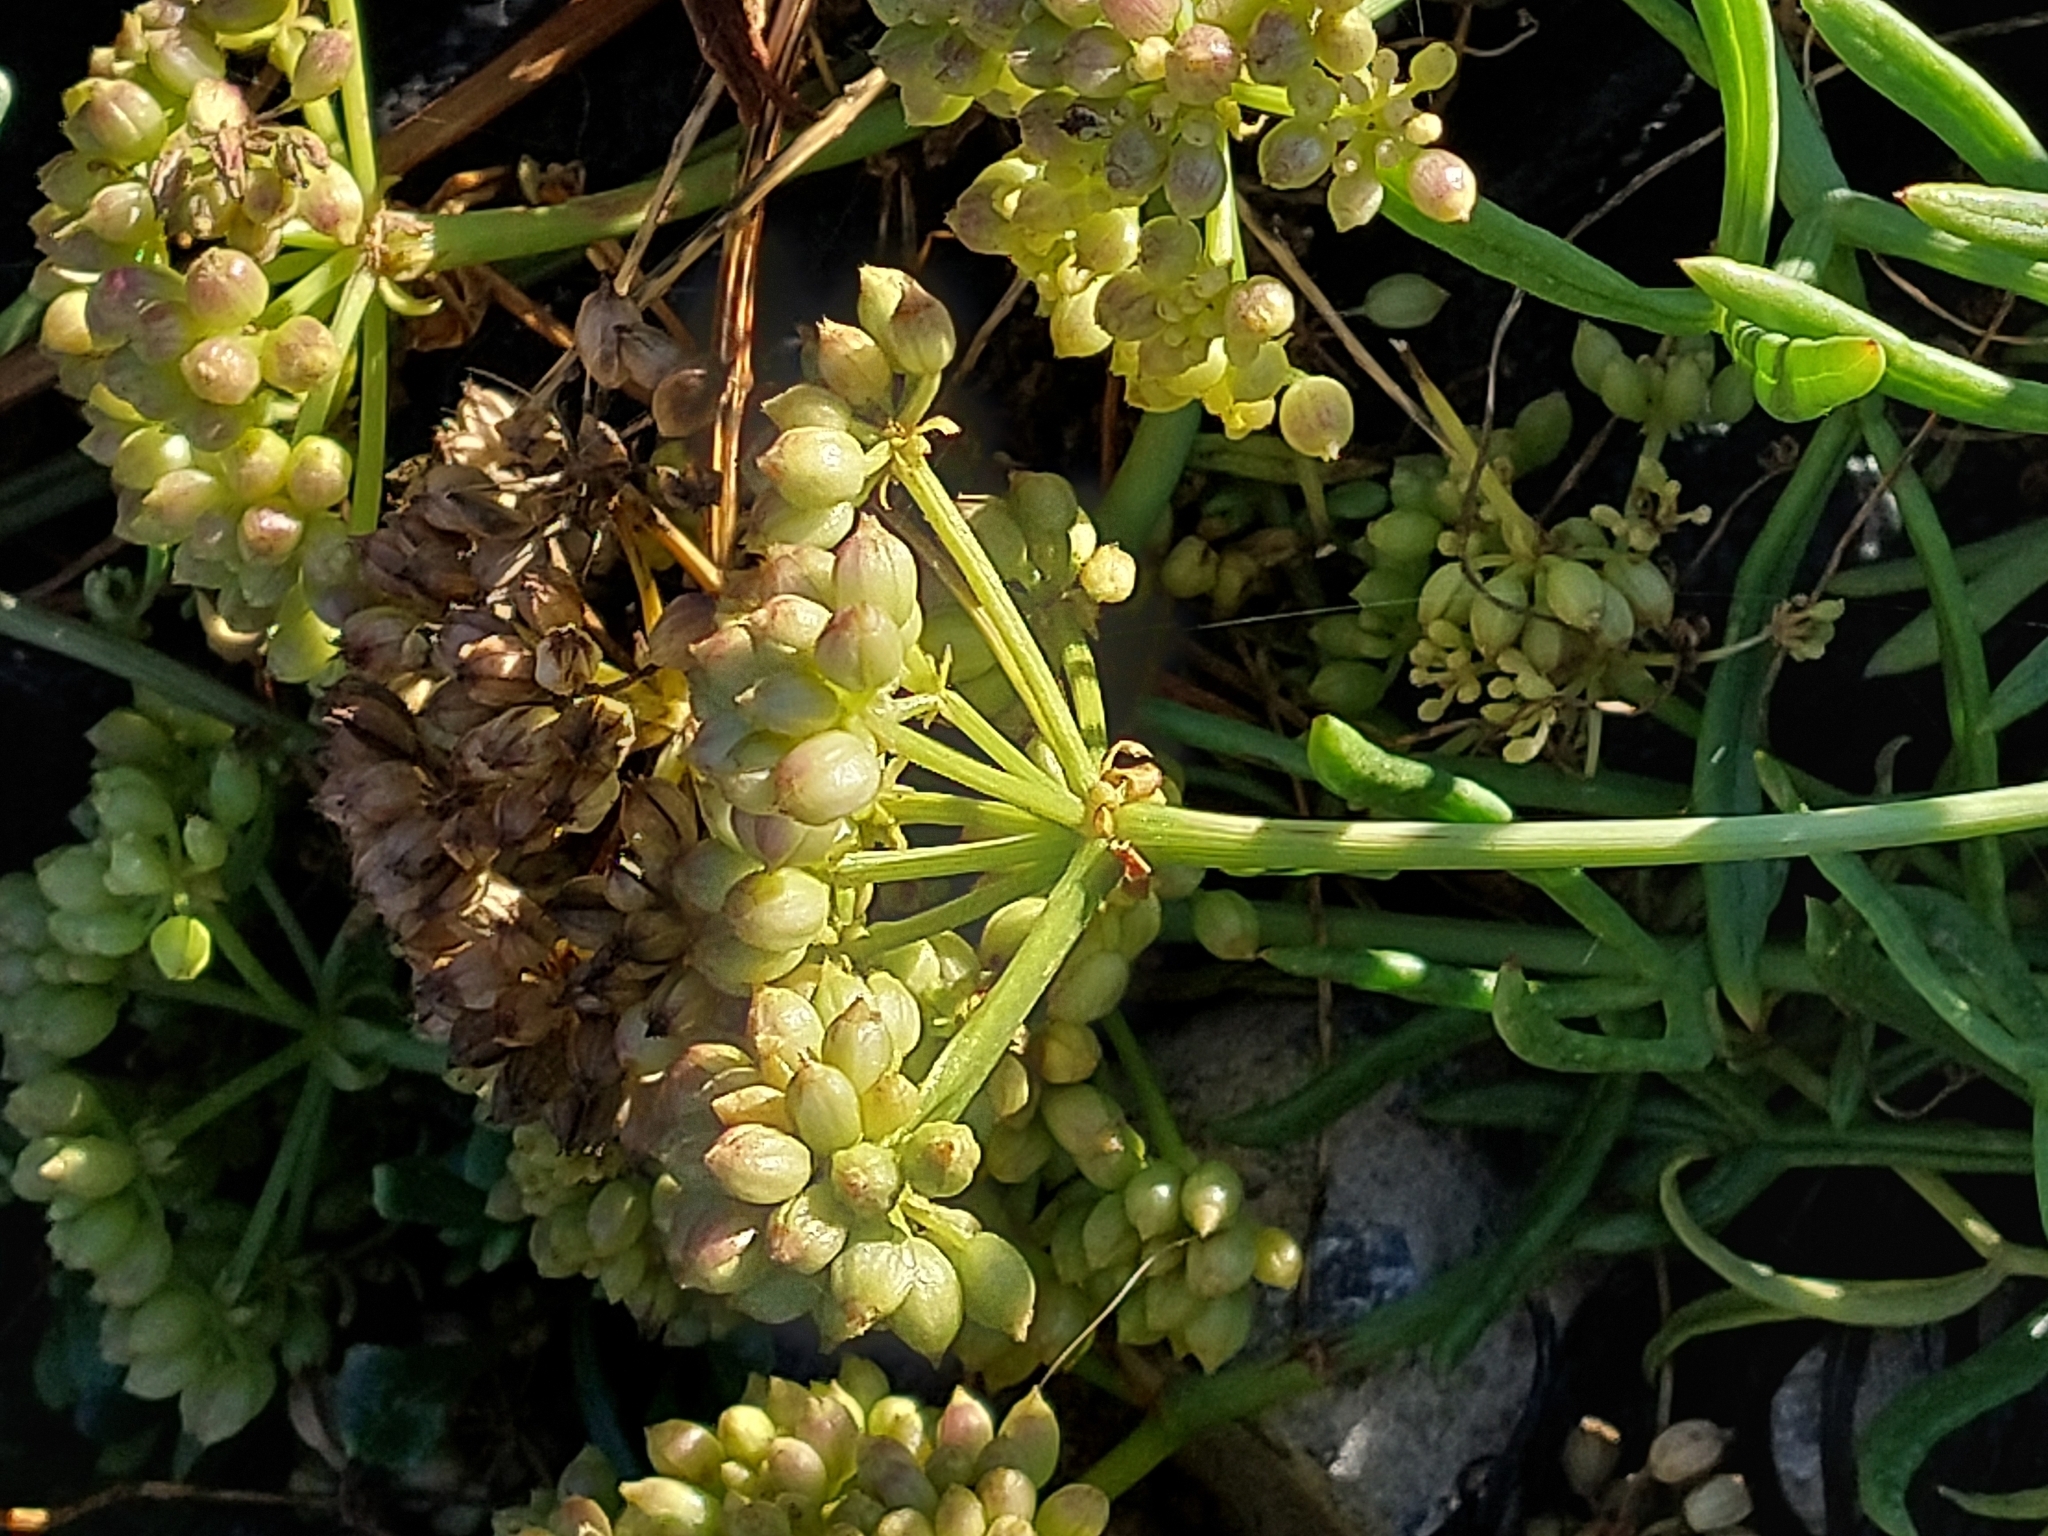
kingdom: Plantae
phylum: Tracheophyta
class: Magnoliopsida
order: Apiales
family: Apiaceae
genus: Crithmum
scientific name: Crithmum maritimum
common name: Rock samphire
